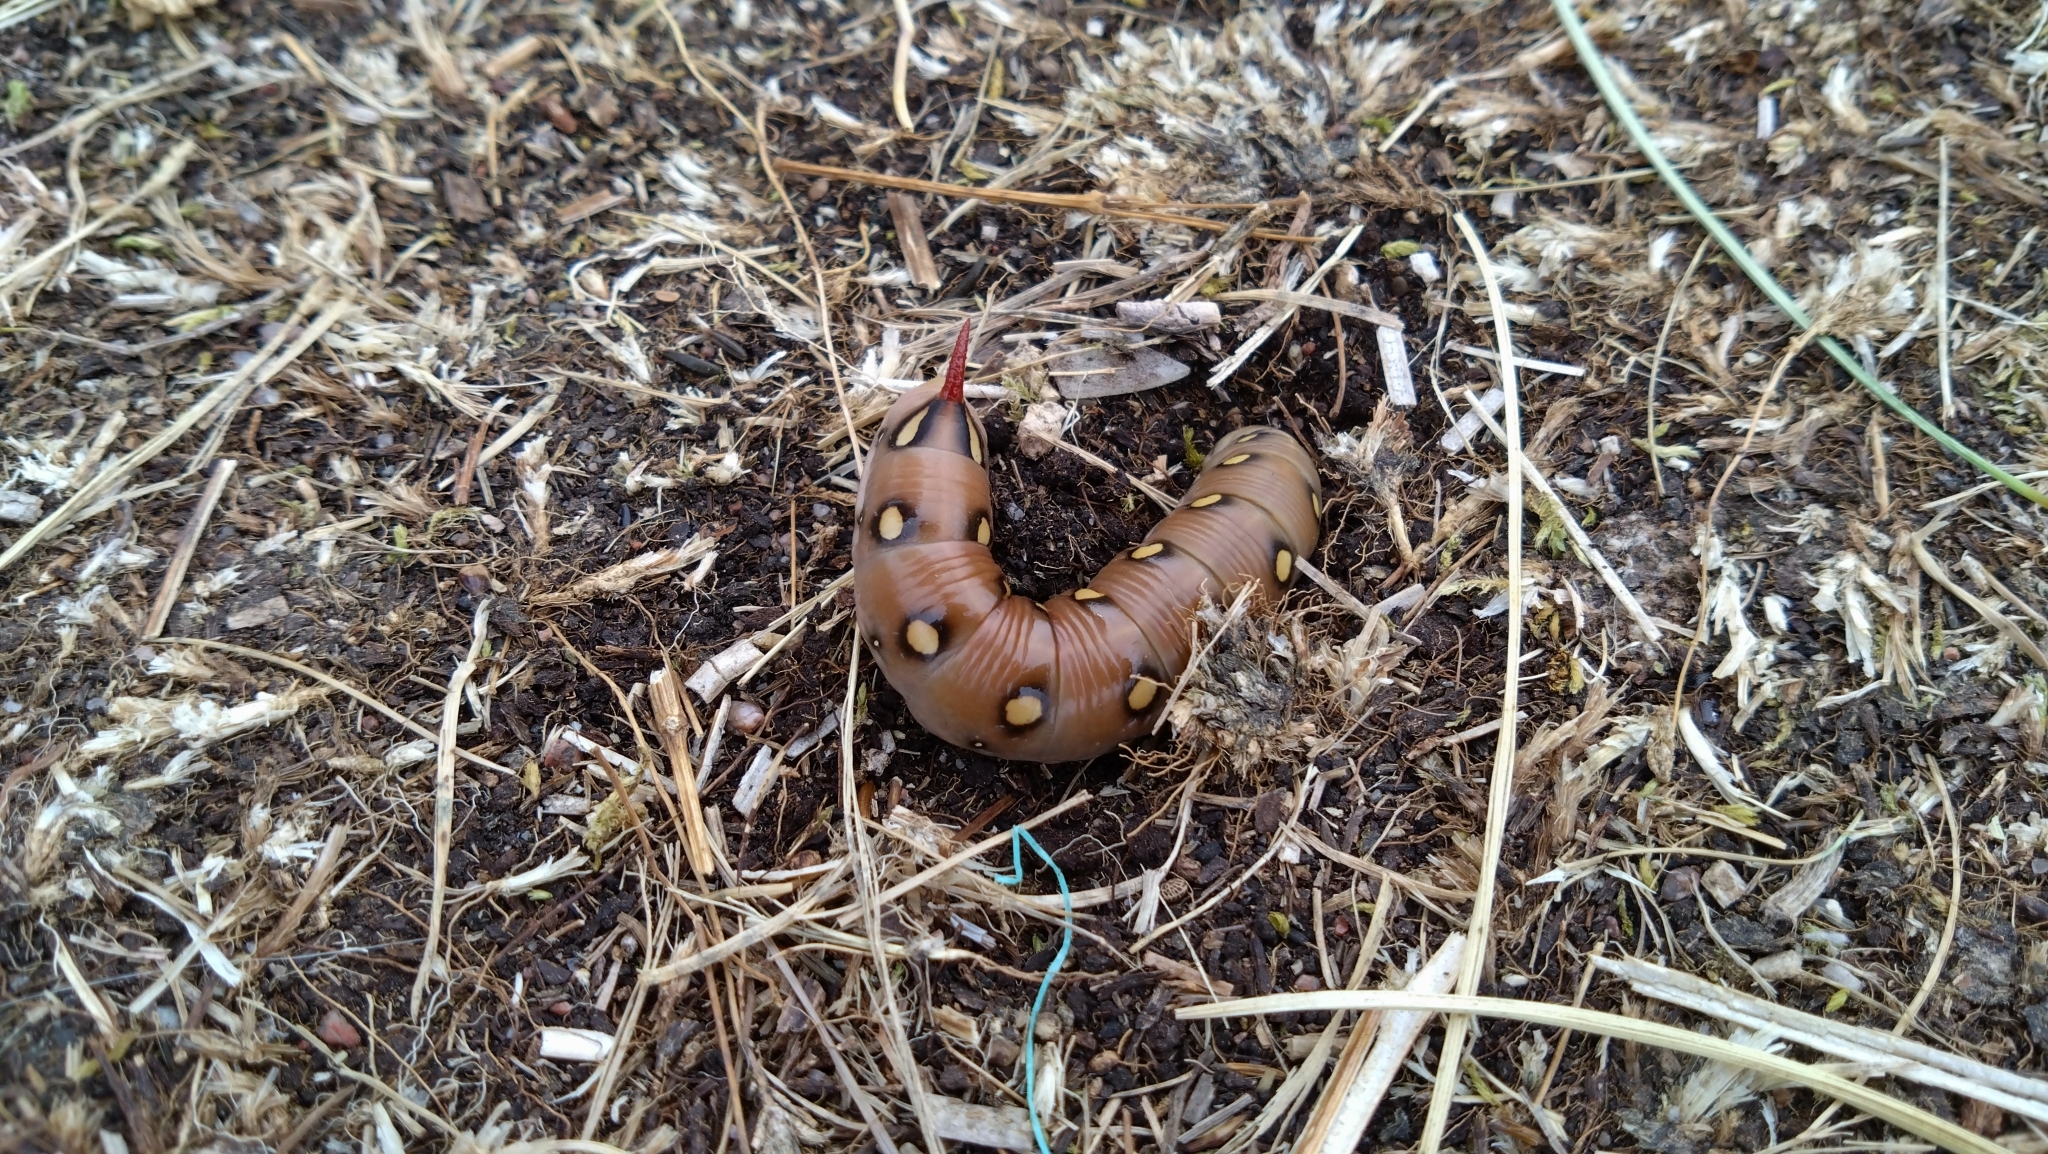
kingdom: Animalia
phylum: Arthropoda
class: Insecta
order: Lepidoptera
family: Sphingidae
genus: Hyles
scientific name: Hyles gallii
